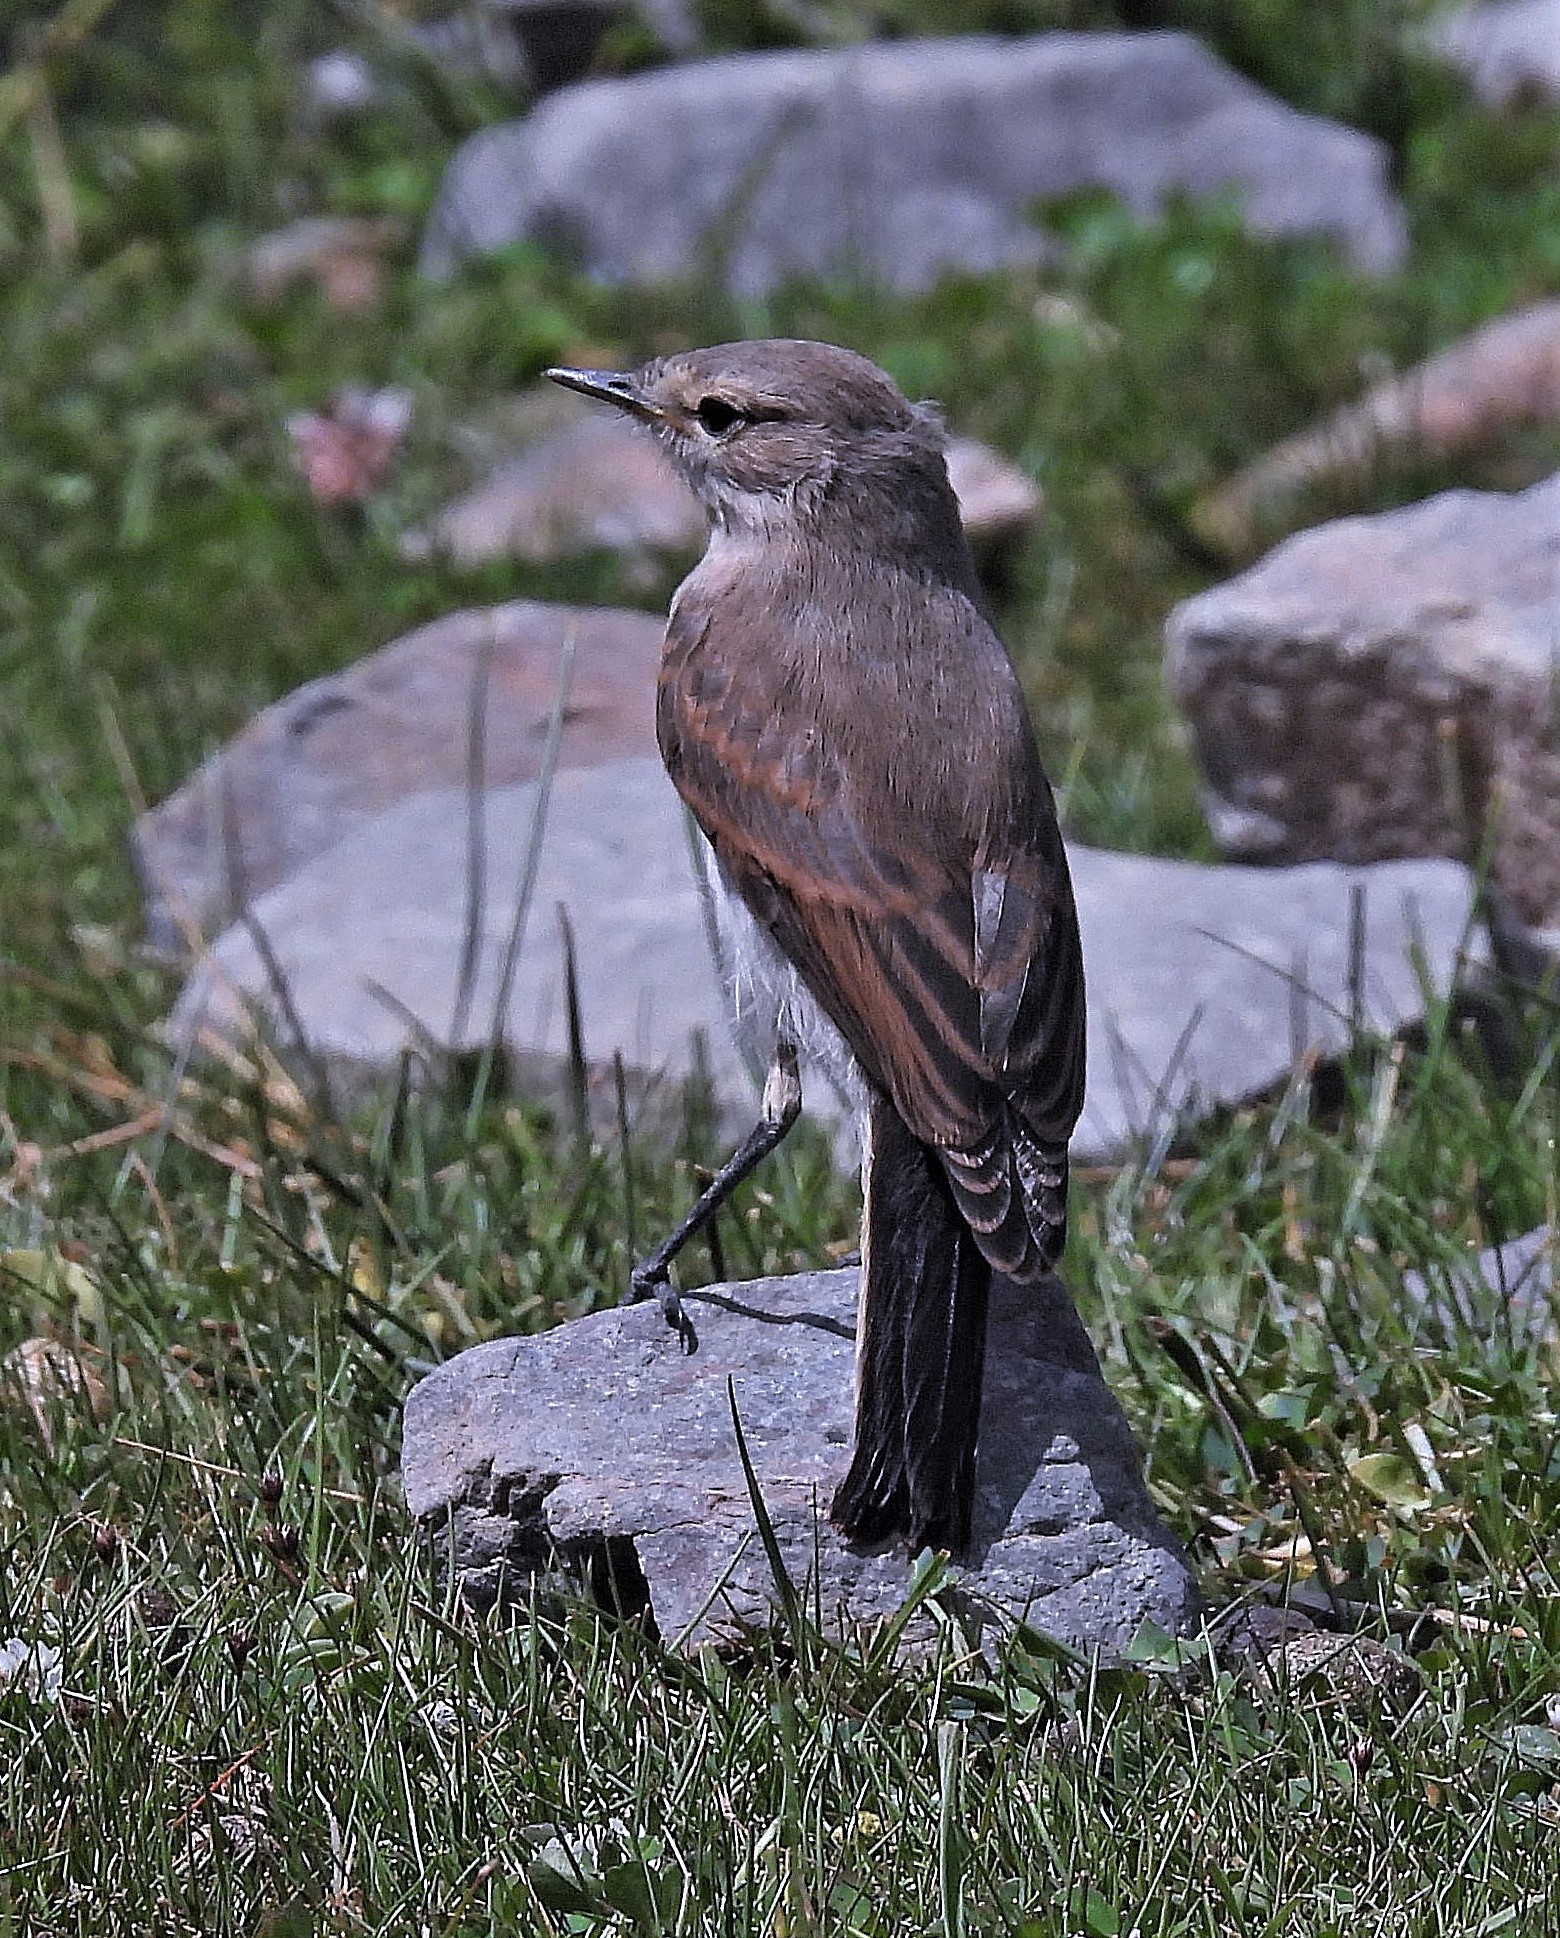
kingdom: Animalia
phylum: Chordata
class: Aves
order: Passeriformes
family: Tyrannidae
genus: Muscisaxicola
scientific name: Muscisaxicola maculirostris
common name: Spot-billed ground tyrant
